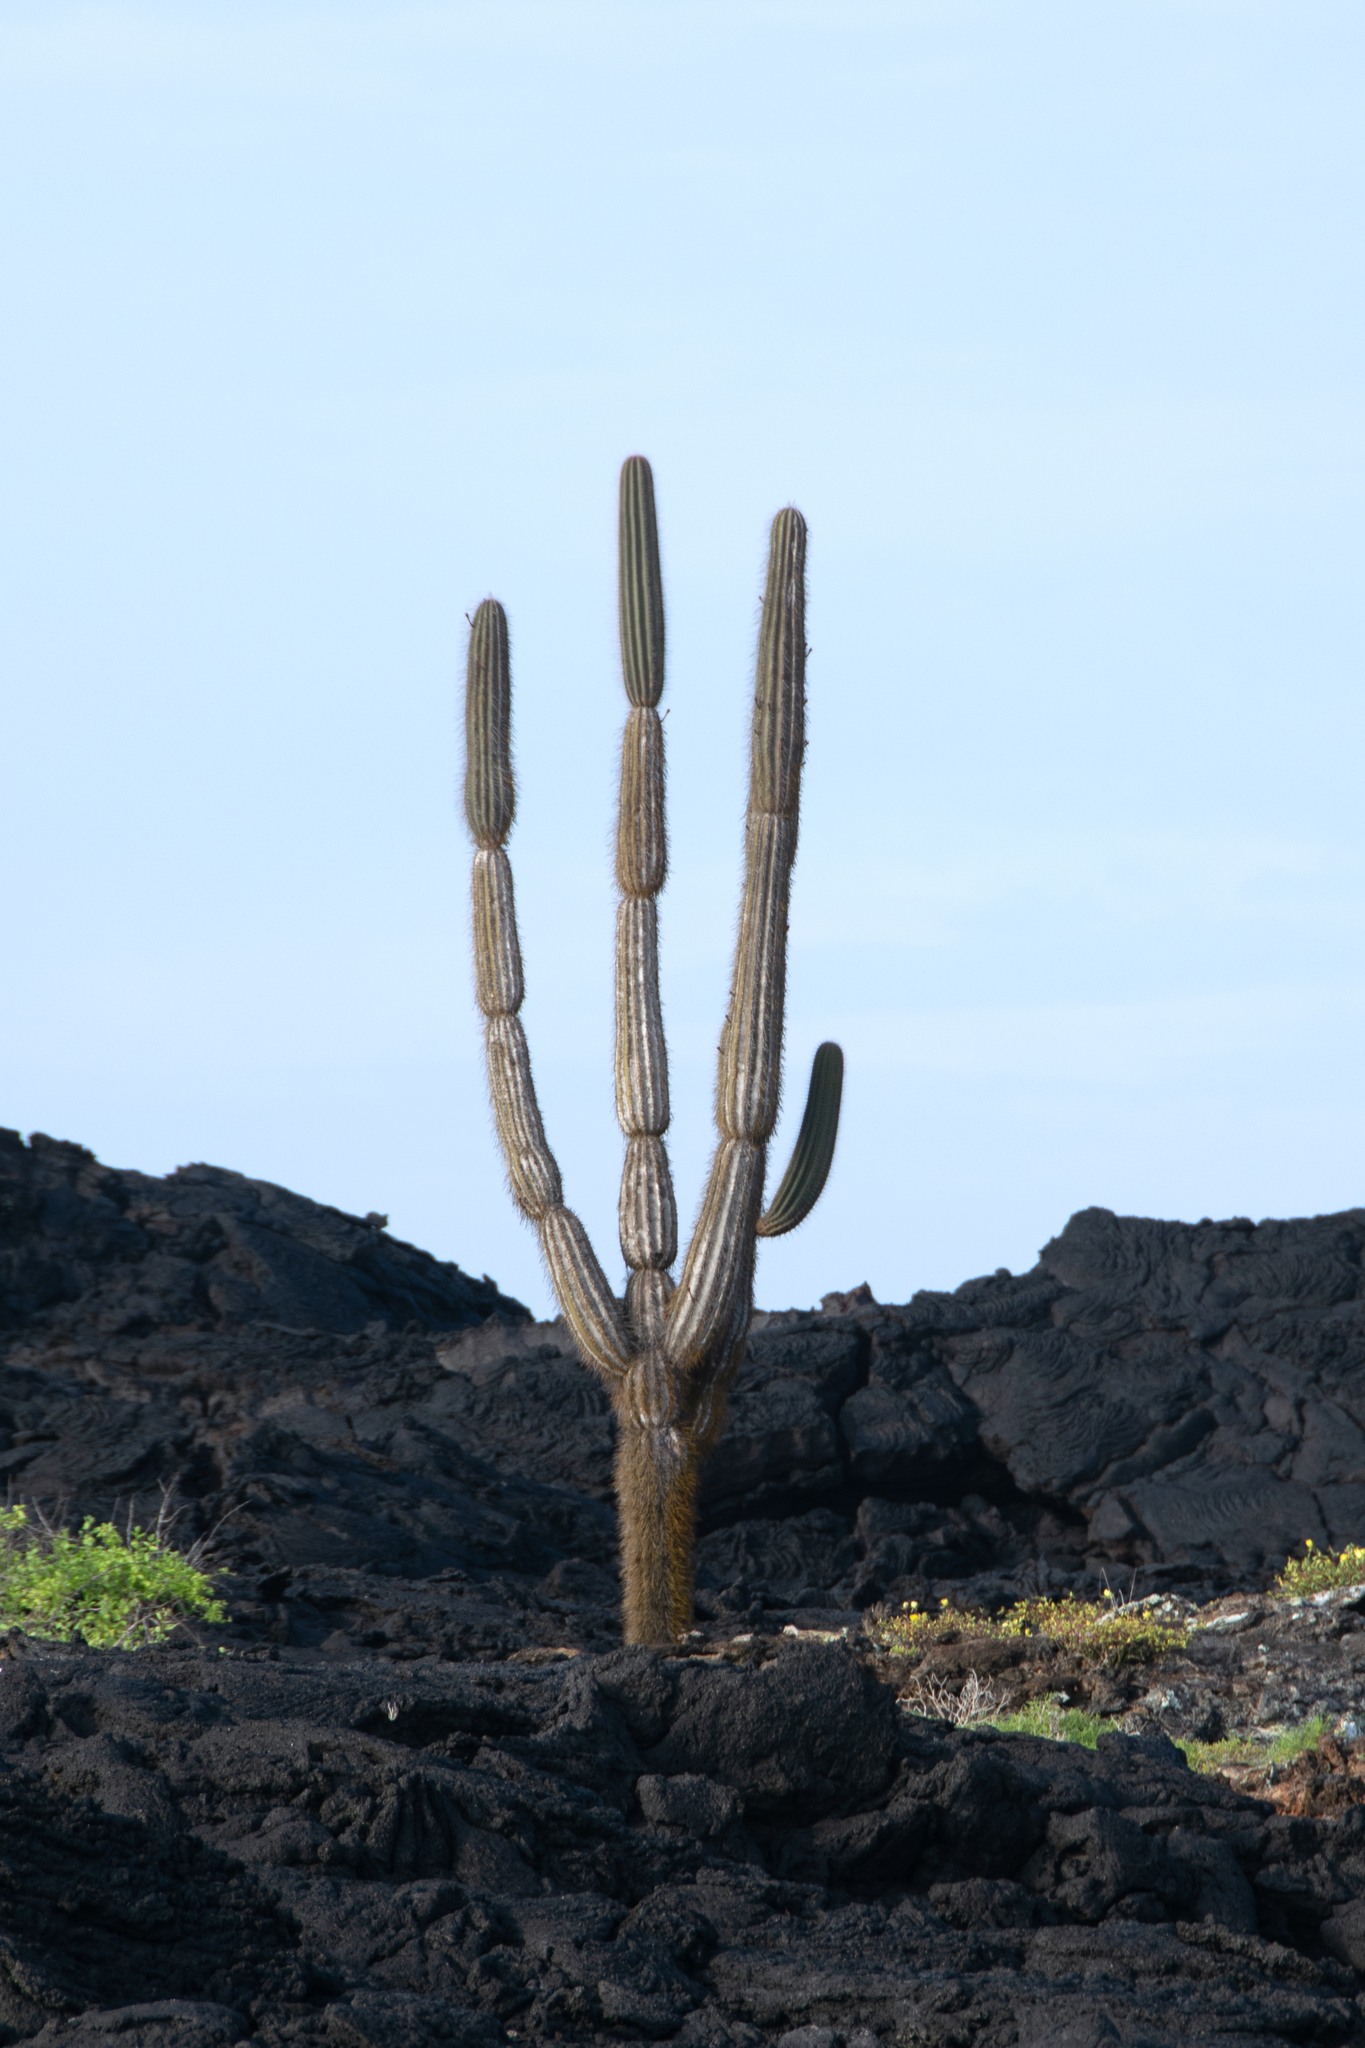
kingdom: Plantae
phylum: Tracheophyta
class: Magnoliopsida
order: Caryophyllales
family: Cactaceae
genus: Jasminocereus
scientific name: Jasminocereus thouarsii
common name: Candelabra cactus
